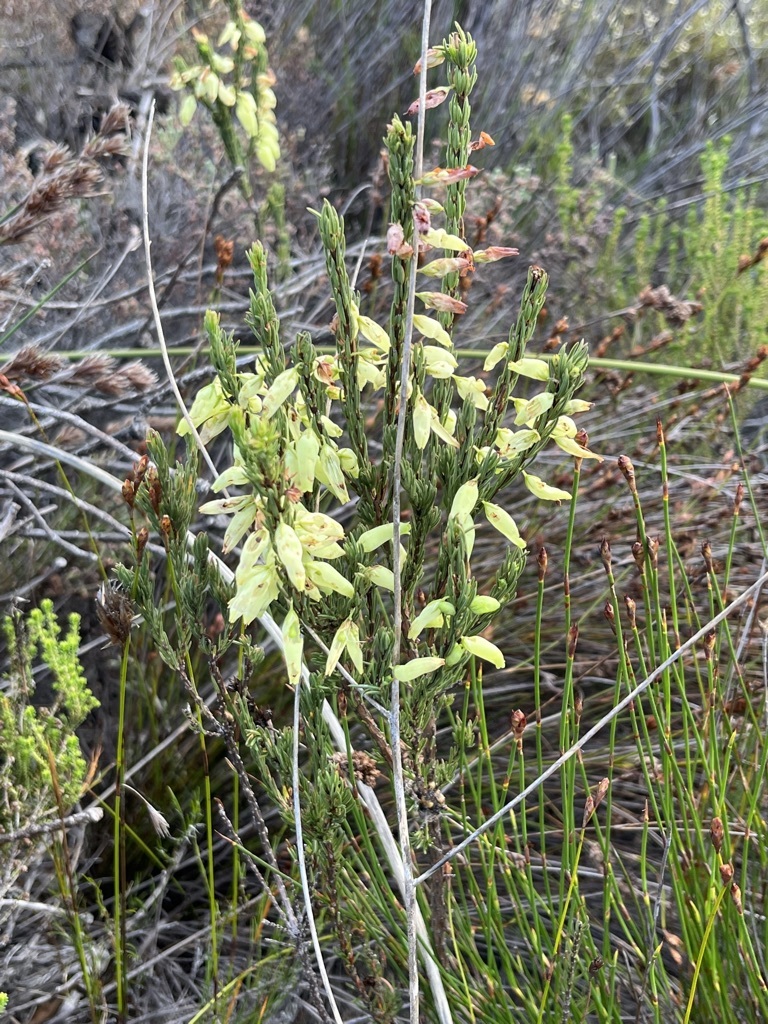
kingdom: Plantae
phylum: Tracheophyta
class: Magnoliopsida
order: Ericales
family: Ericaceae
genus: Erica
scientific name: Erica filipendula
